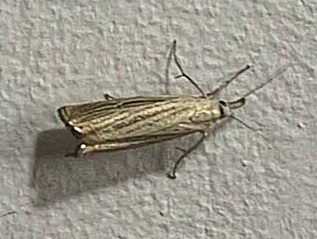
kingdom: Animalia
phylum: Arthropoda
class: Insecta
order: Lepidoptera
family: Crambidae
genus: Chrysoteuchia
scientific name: Chrysoteuchia culmella
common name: Garden grass-veneer
